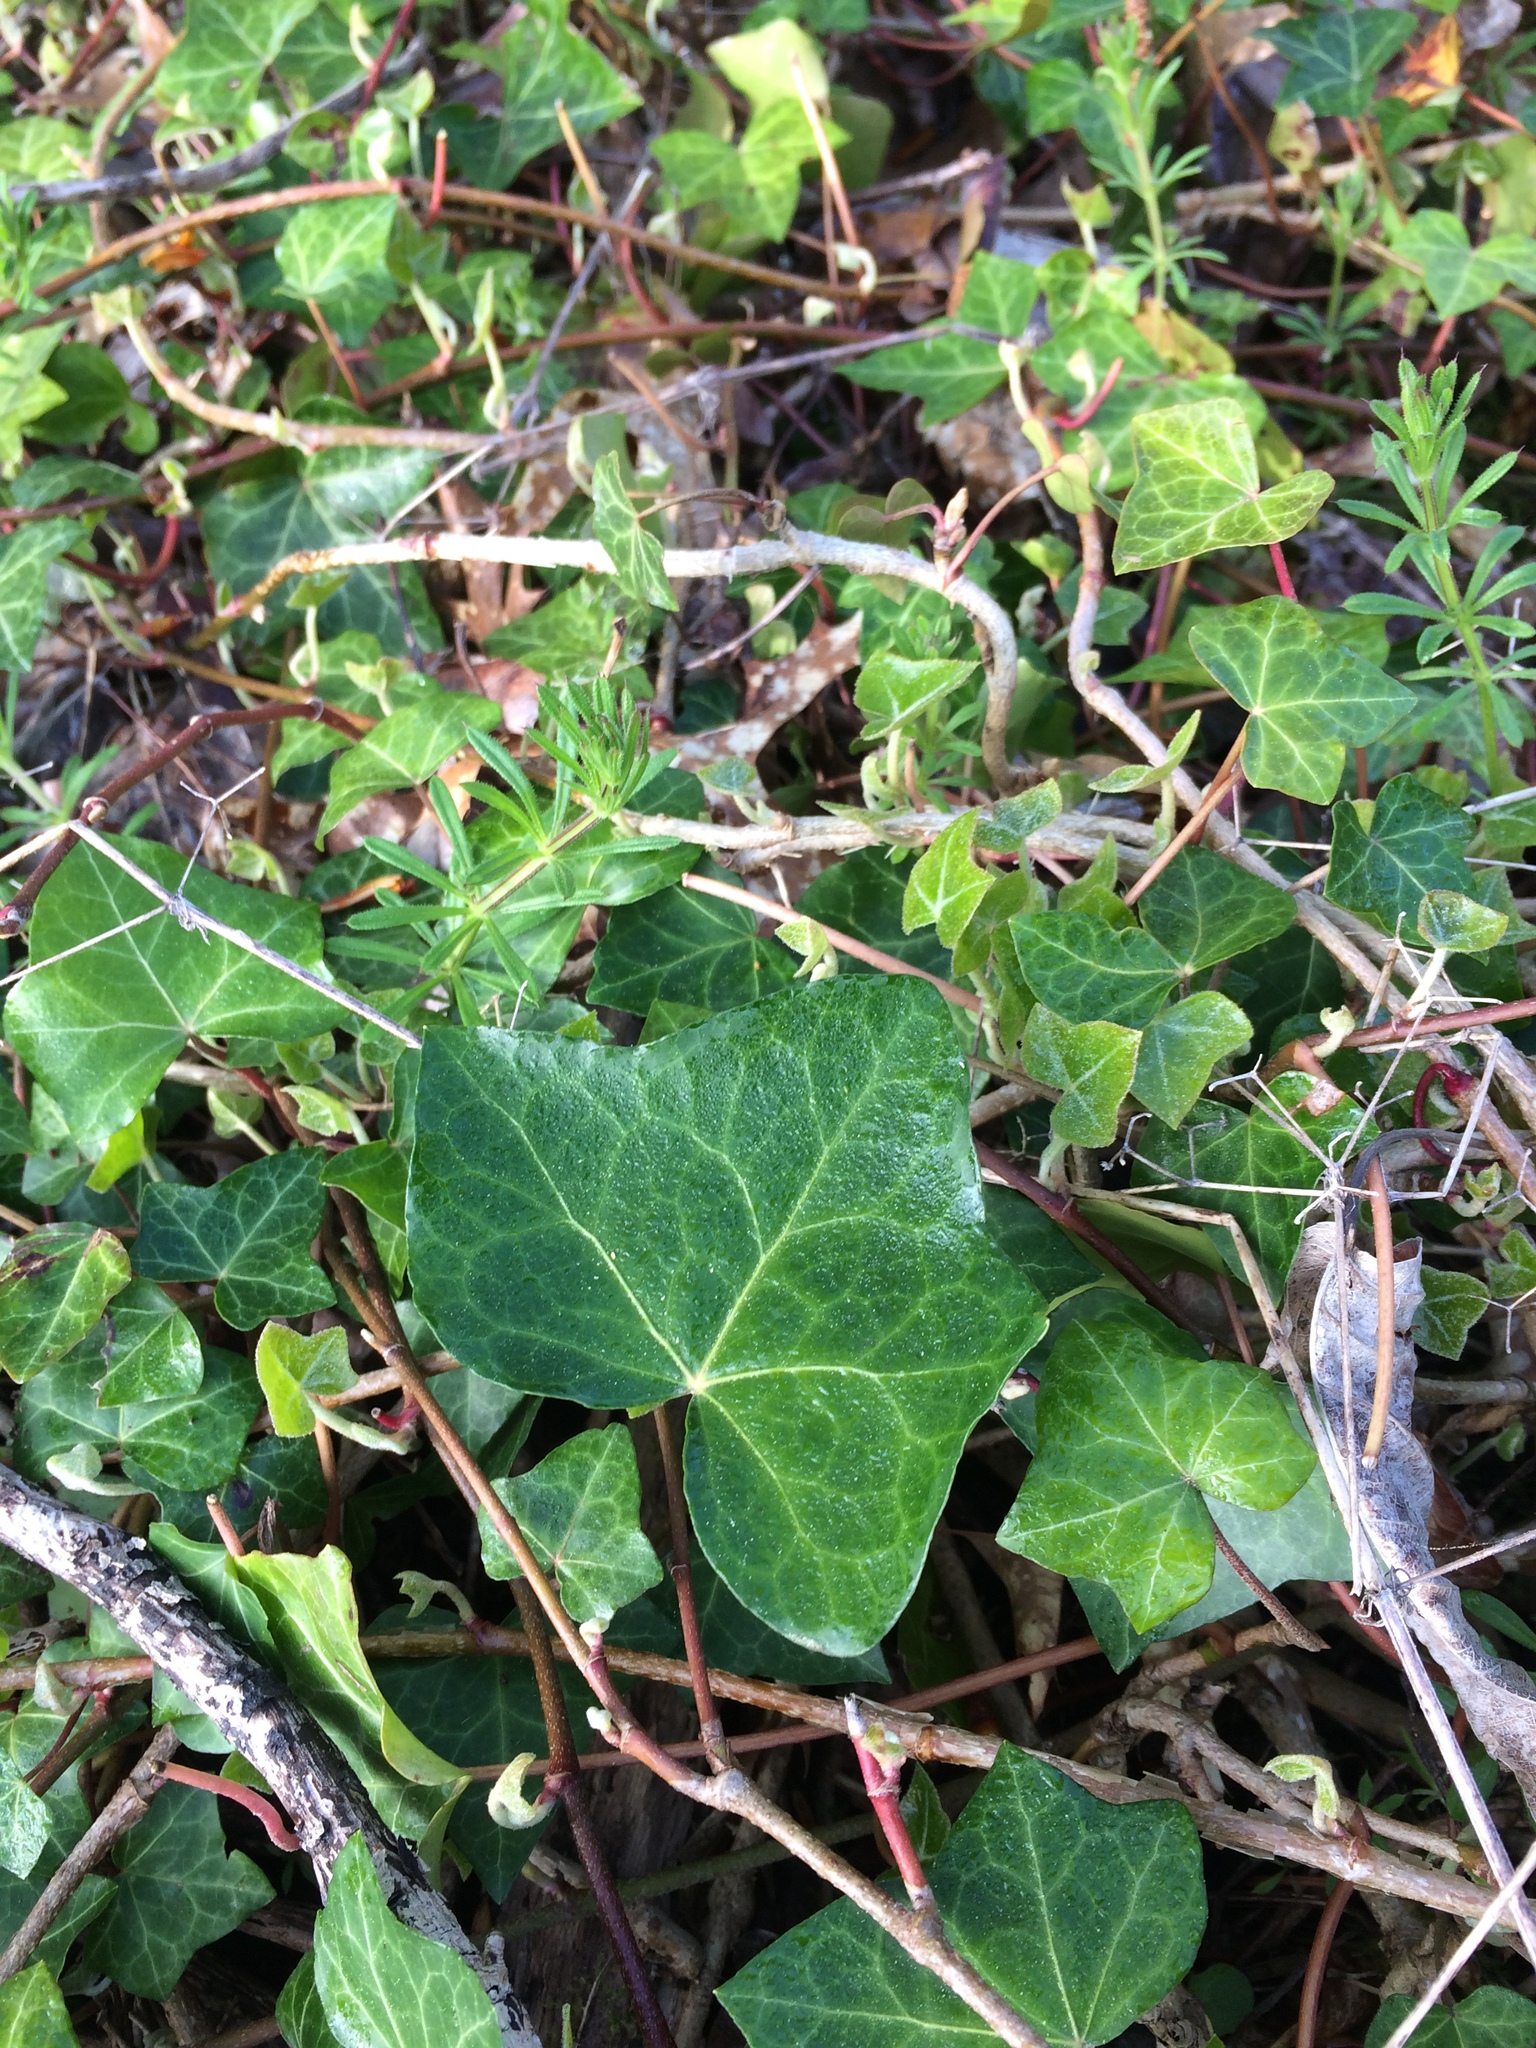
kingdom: Plantae
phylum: Tracheophyta
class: Magnoliopsida
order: Apiales
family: Araliaceae
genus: Hedera
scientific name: Hedera helix
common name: Ivy
